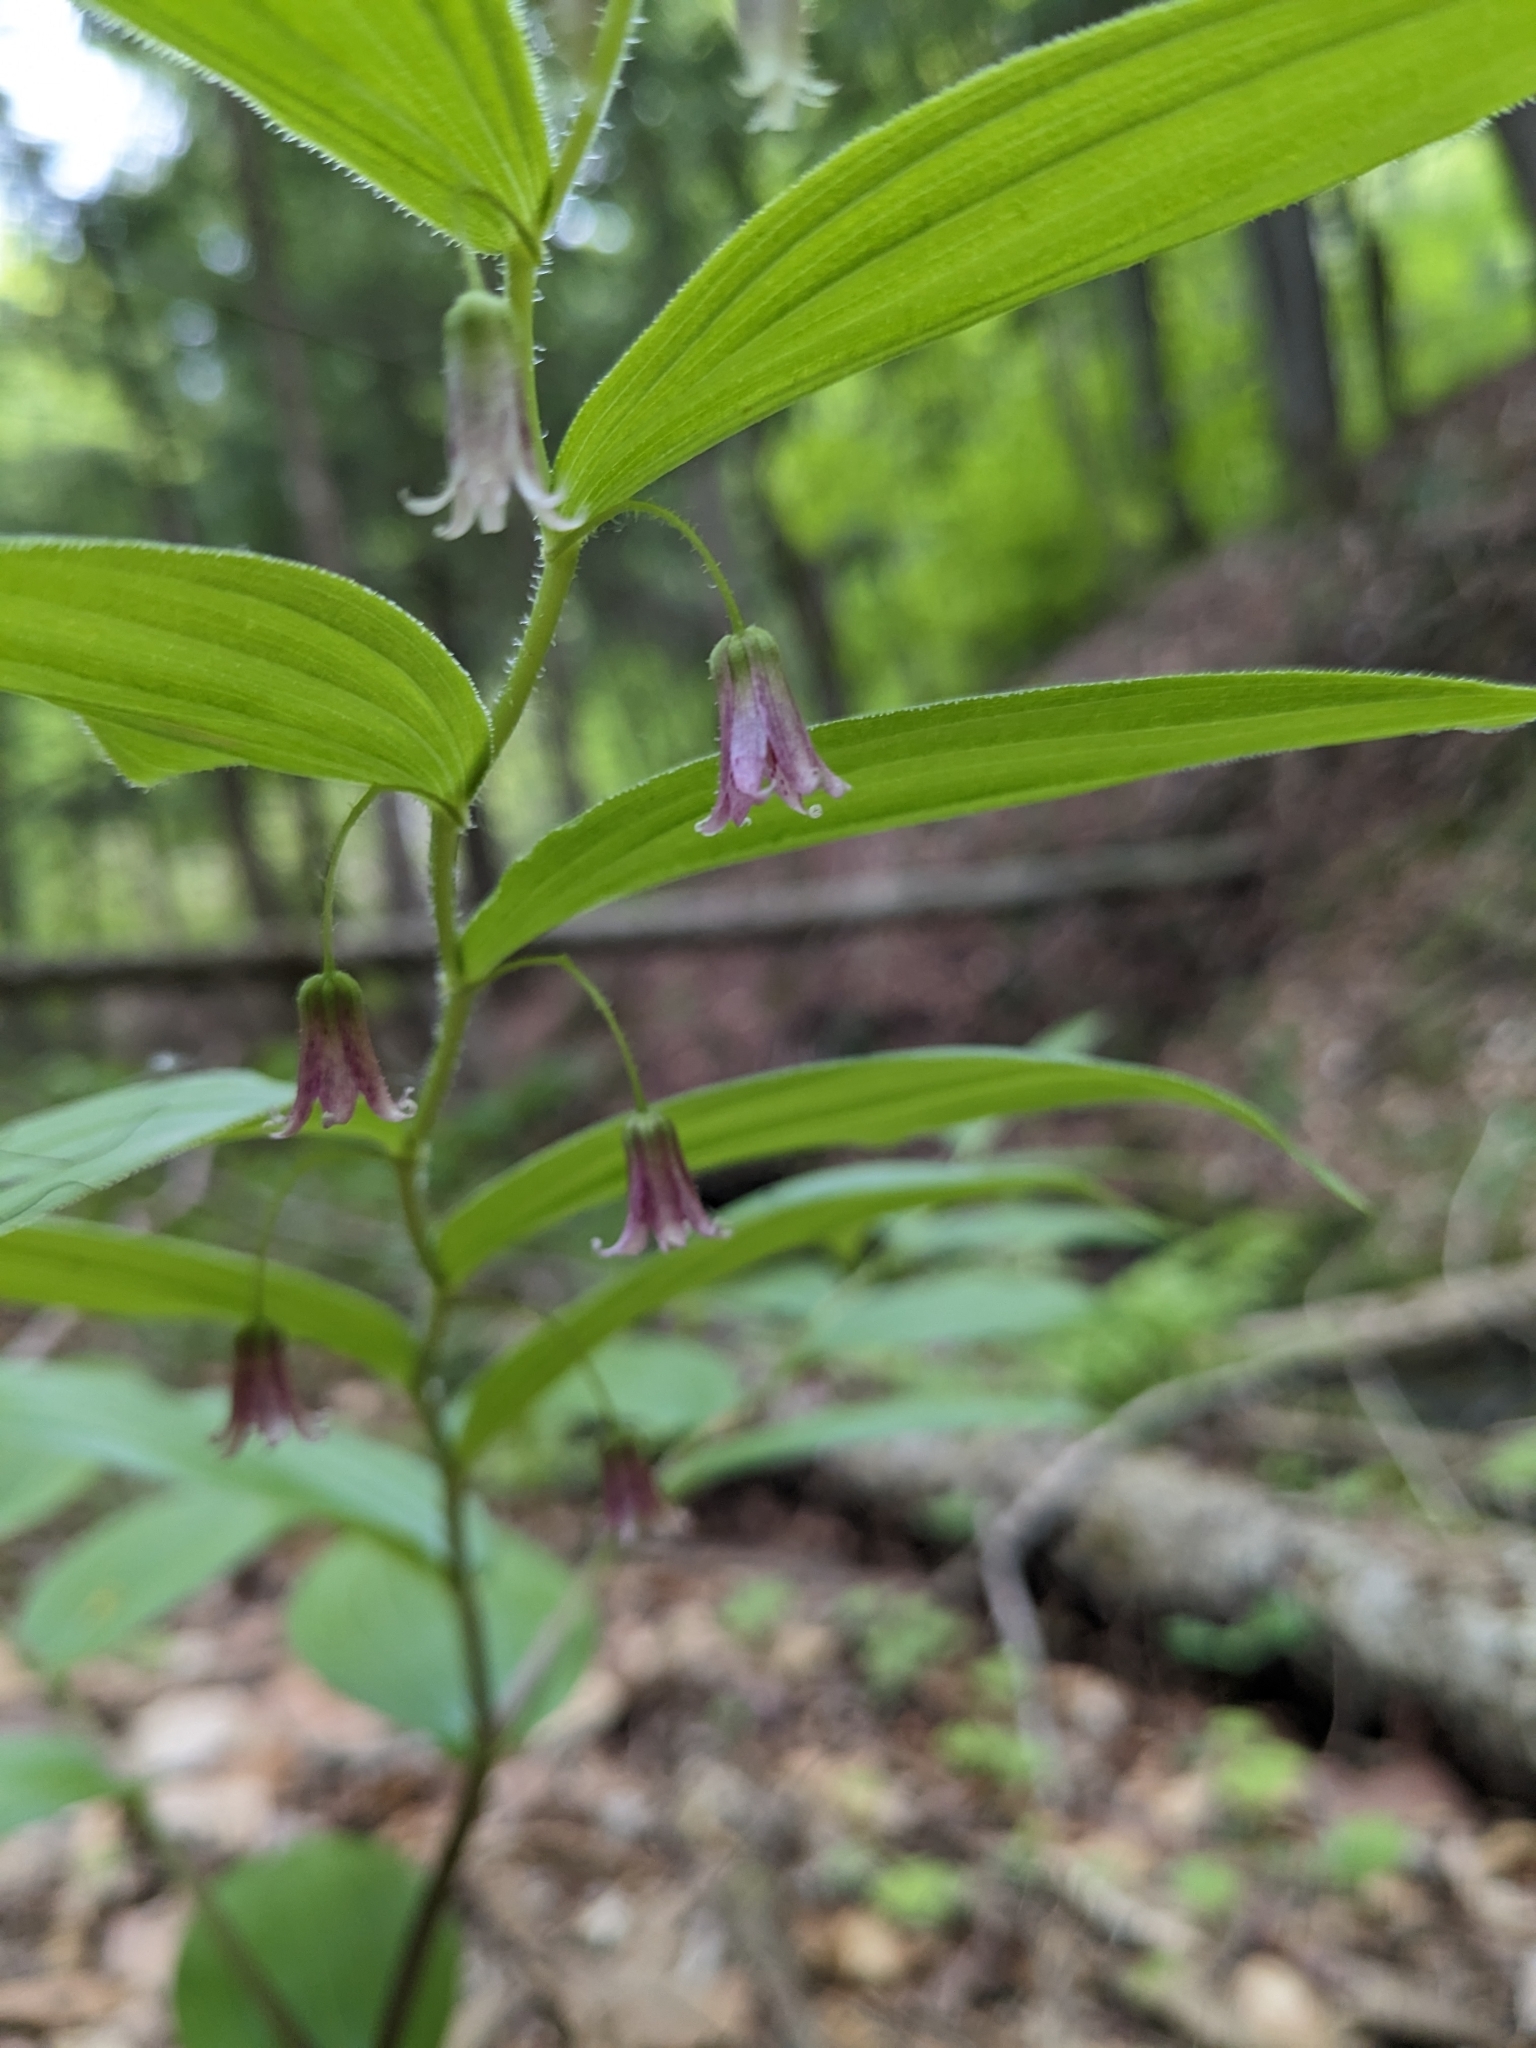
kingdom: Plantae
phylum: Tracheophyta
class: Liliopsida
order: Liliales
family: Liliaceae
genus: Streptopus
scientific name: Streptopus lanceolatus
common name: Rose mandarin
